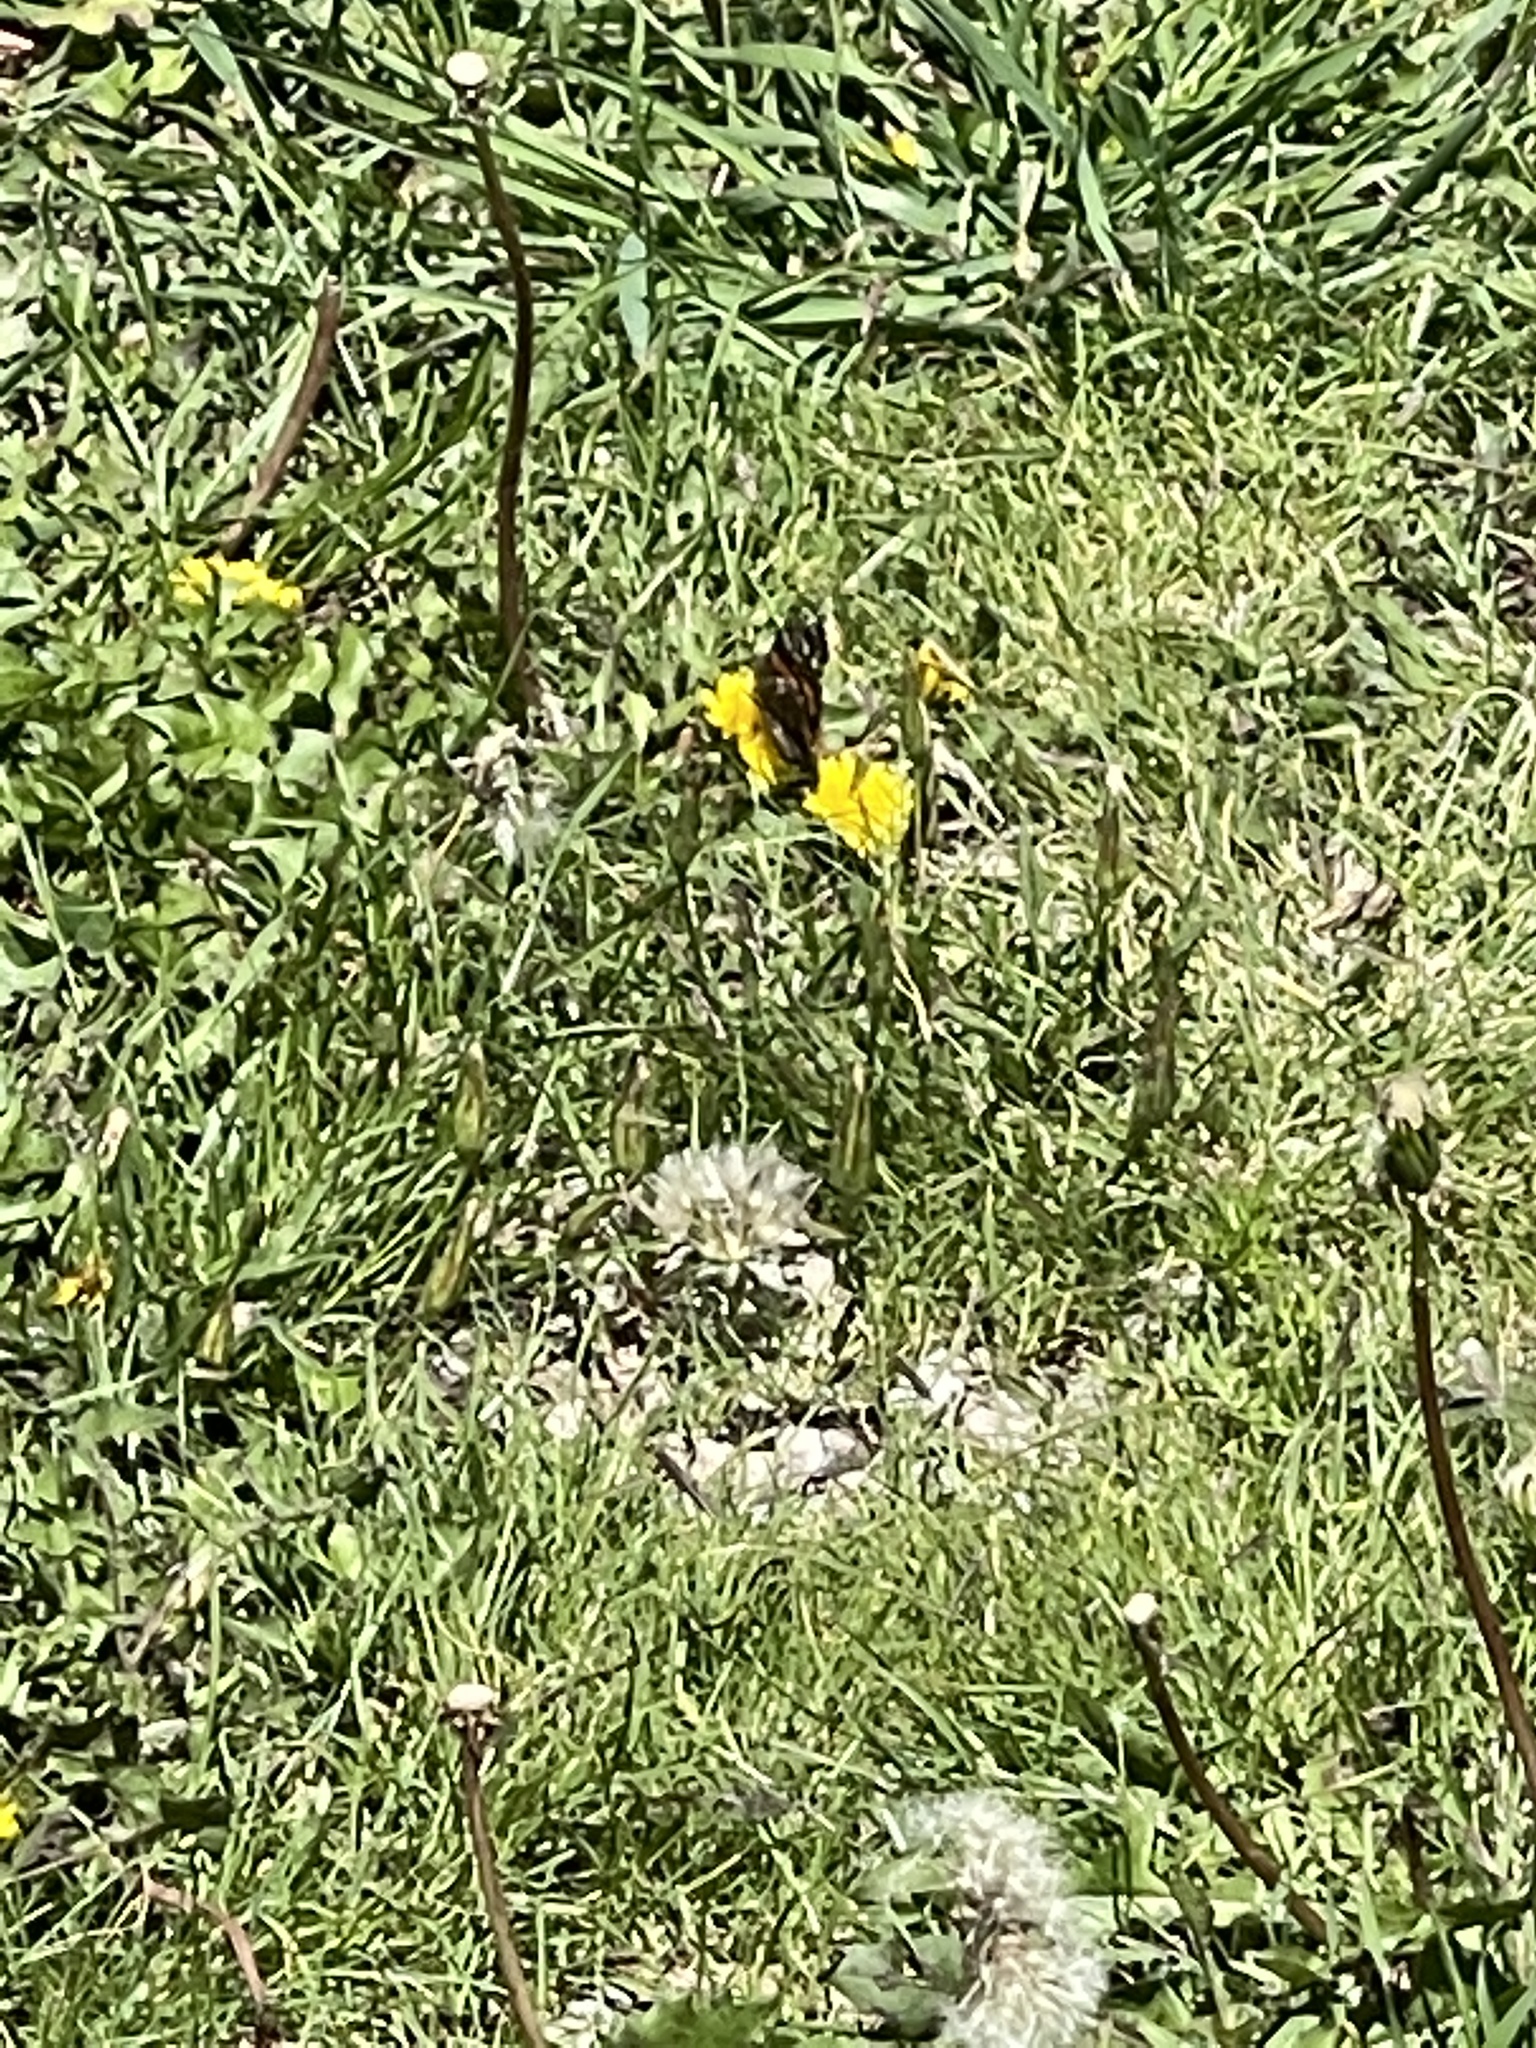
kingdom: Animalia
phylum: Arthropoda
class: Insecta
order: Lepidoptera
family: Nymphalidae
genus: Vanessa
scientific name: Vanessa atalanta
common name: Red admiral
